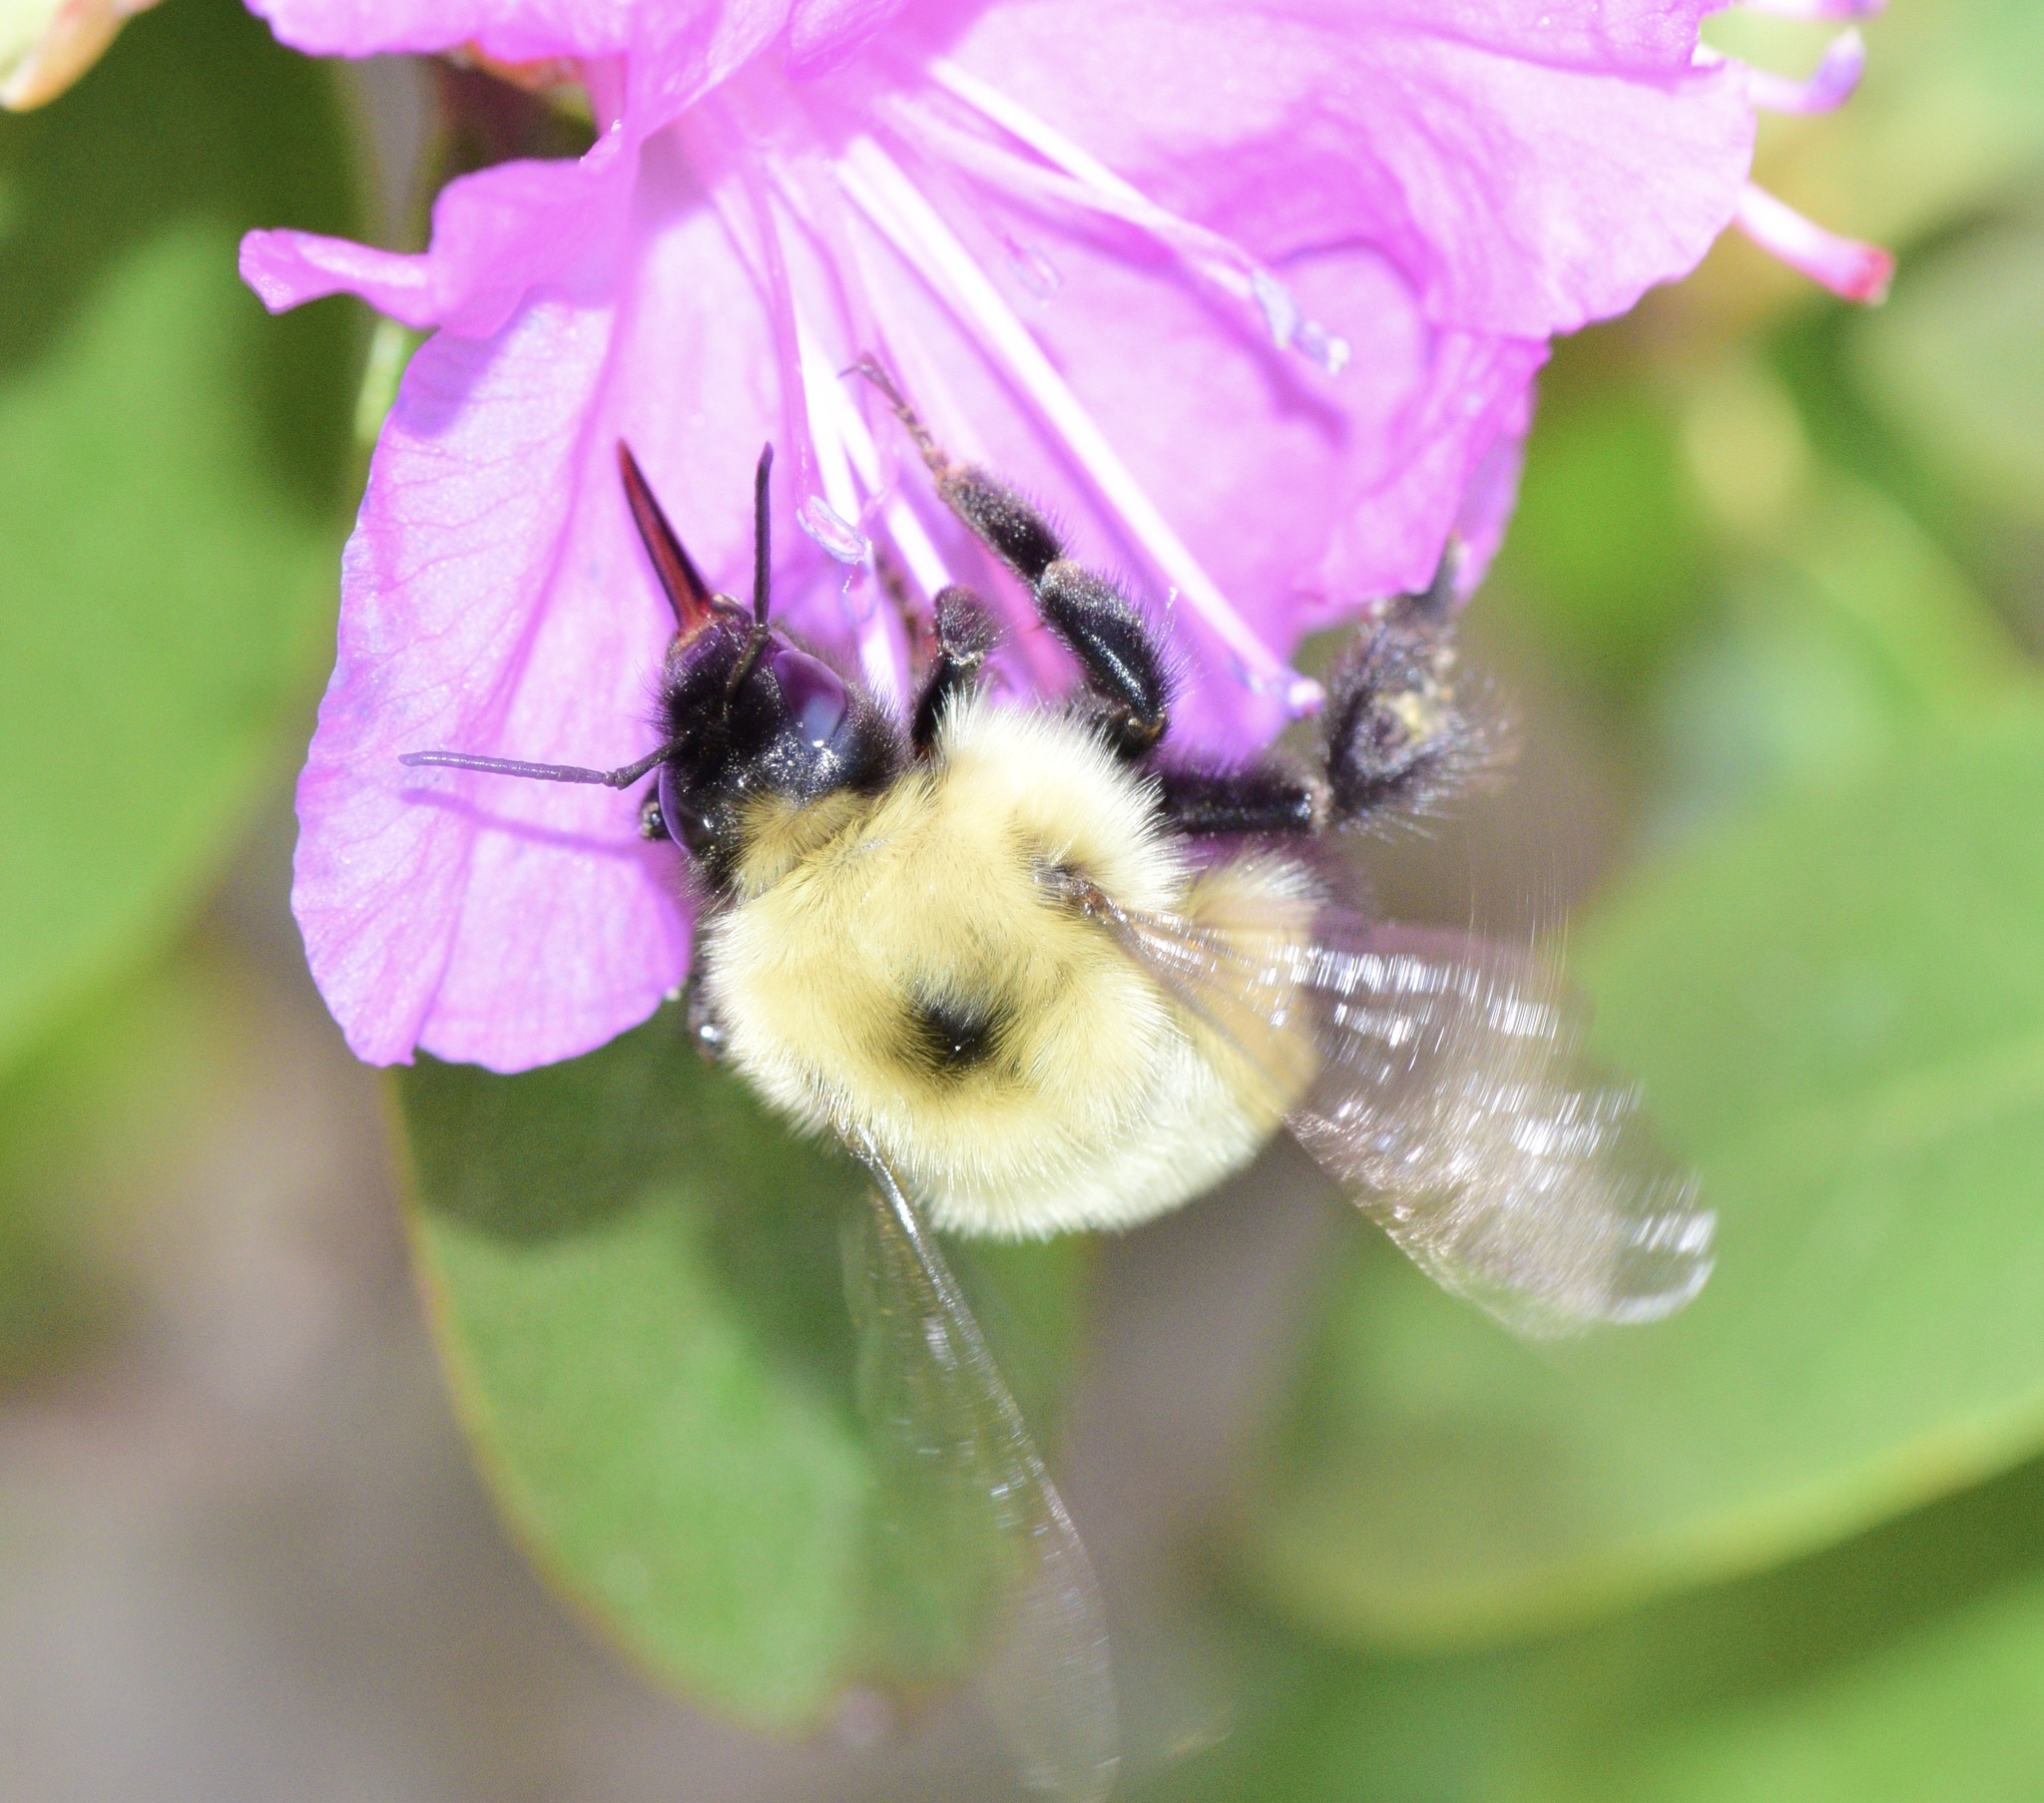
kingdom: Animalia
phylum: Arthropoda
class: Insecta
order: Hymenoptera
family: Apidae
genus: Bombus
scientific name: Bombus bimaculatus
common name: Two-spotted bumble bee
